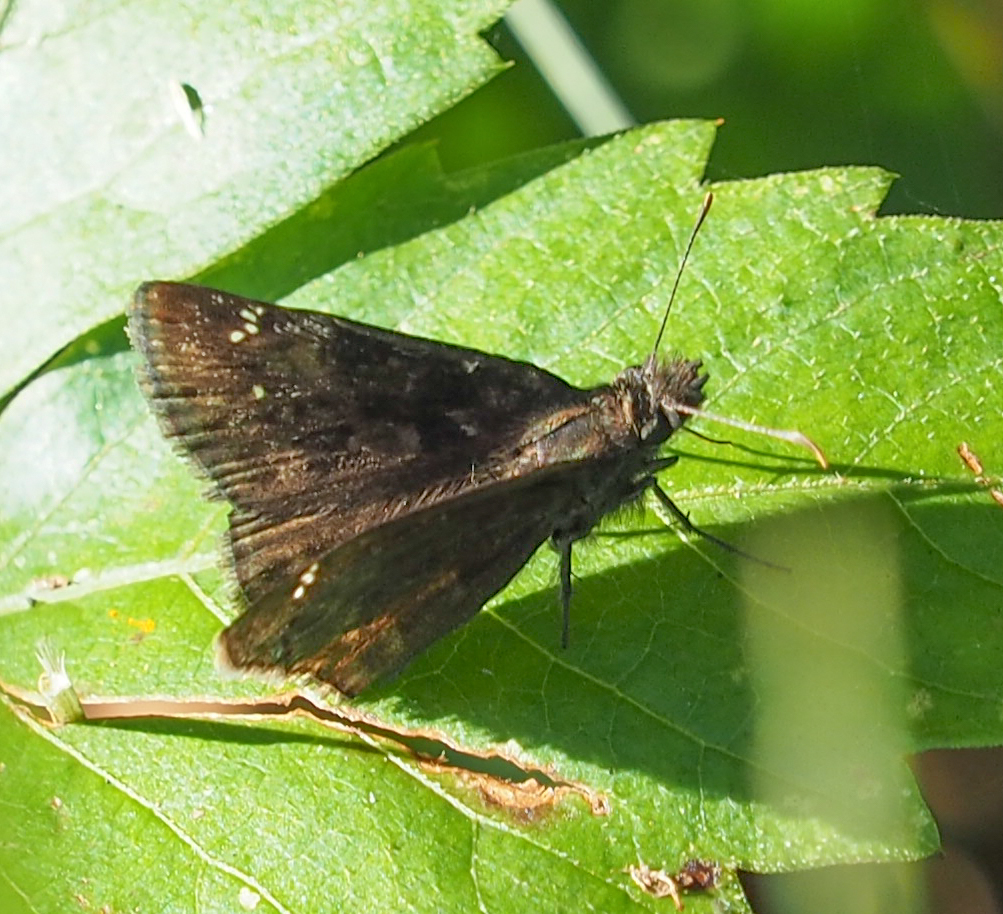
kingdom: Animalia
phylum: Arthropoda
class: Insecta
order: Lepidoptera
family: Hesperiidae
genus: Erynnis
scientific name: Erynnis baptisiae
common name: Wild indigo duskywing
